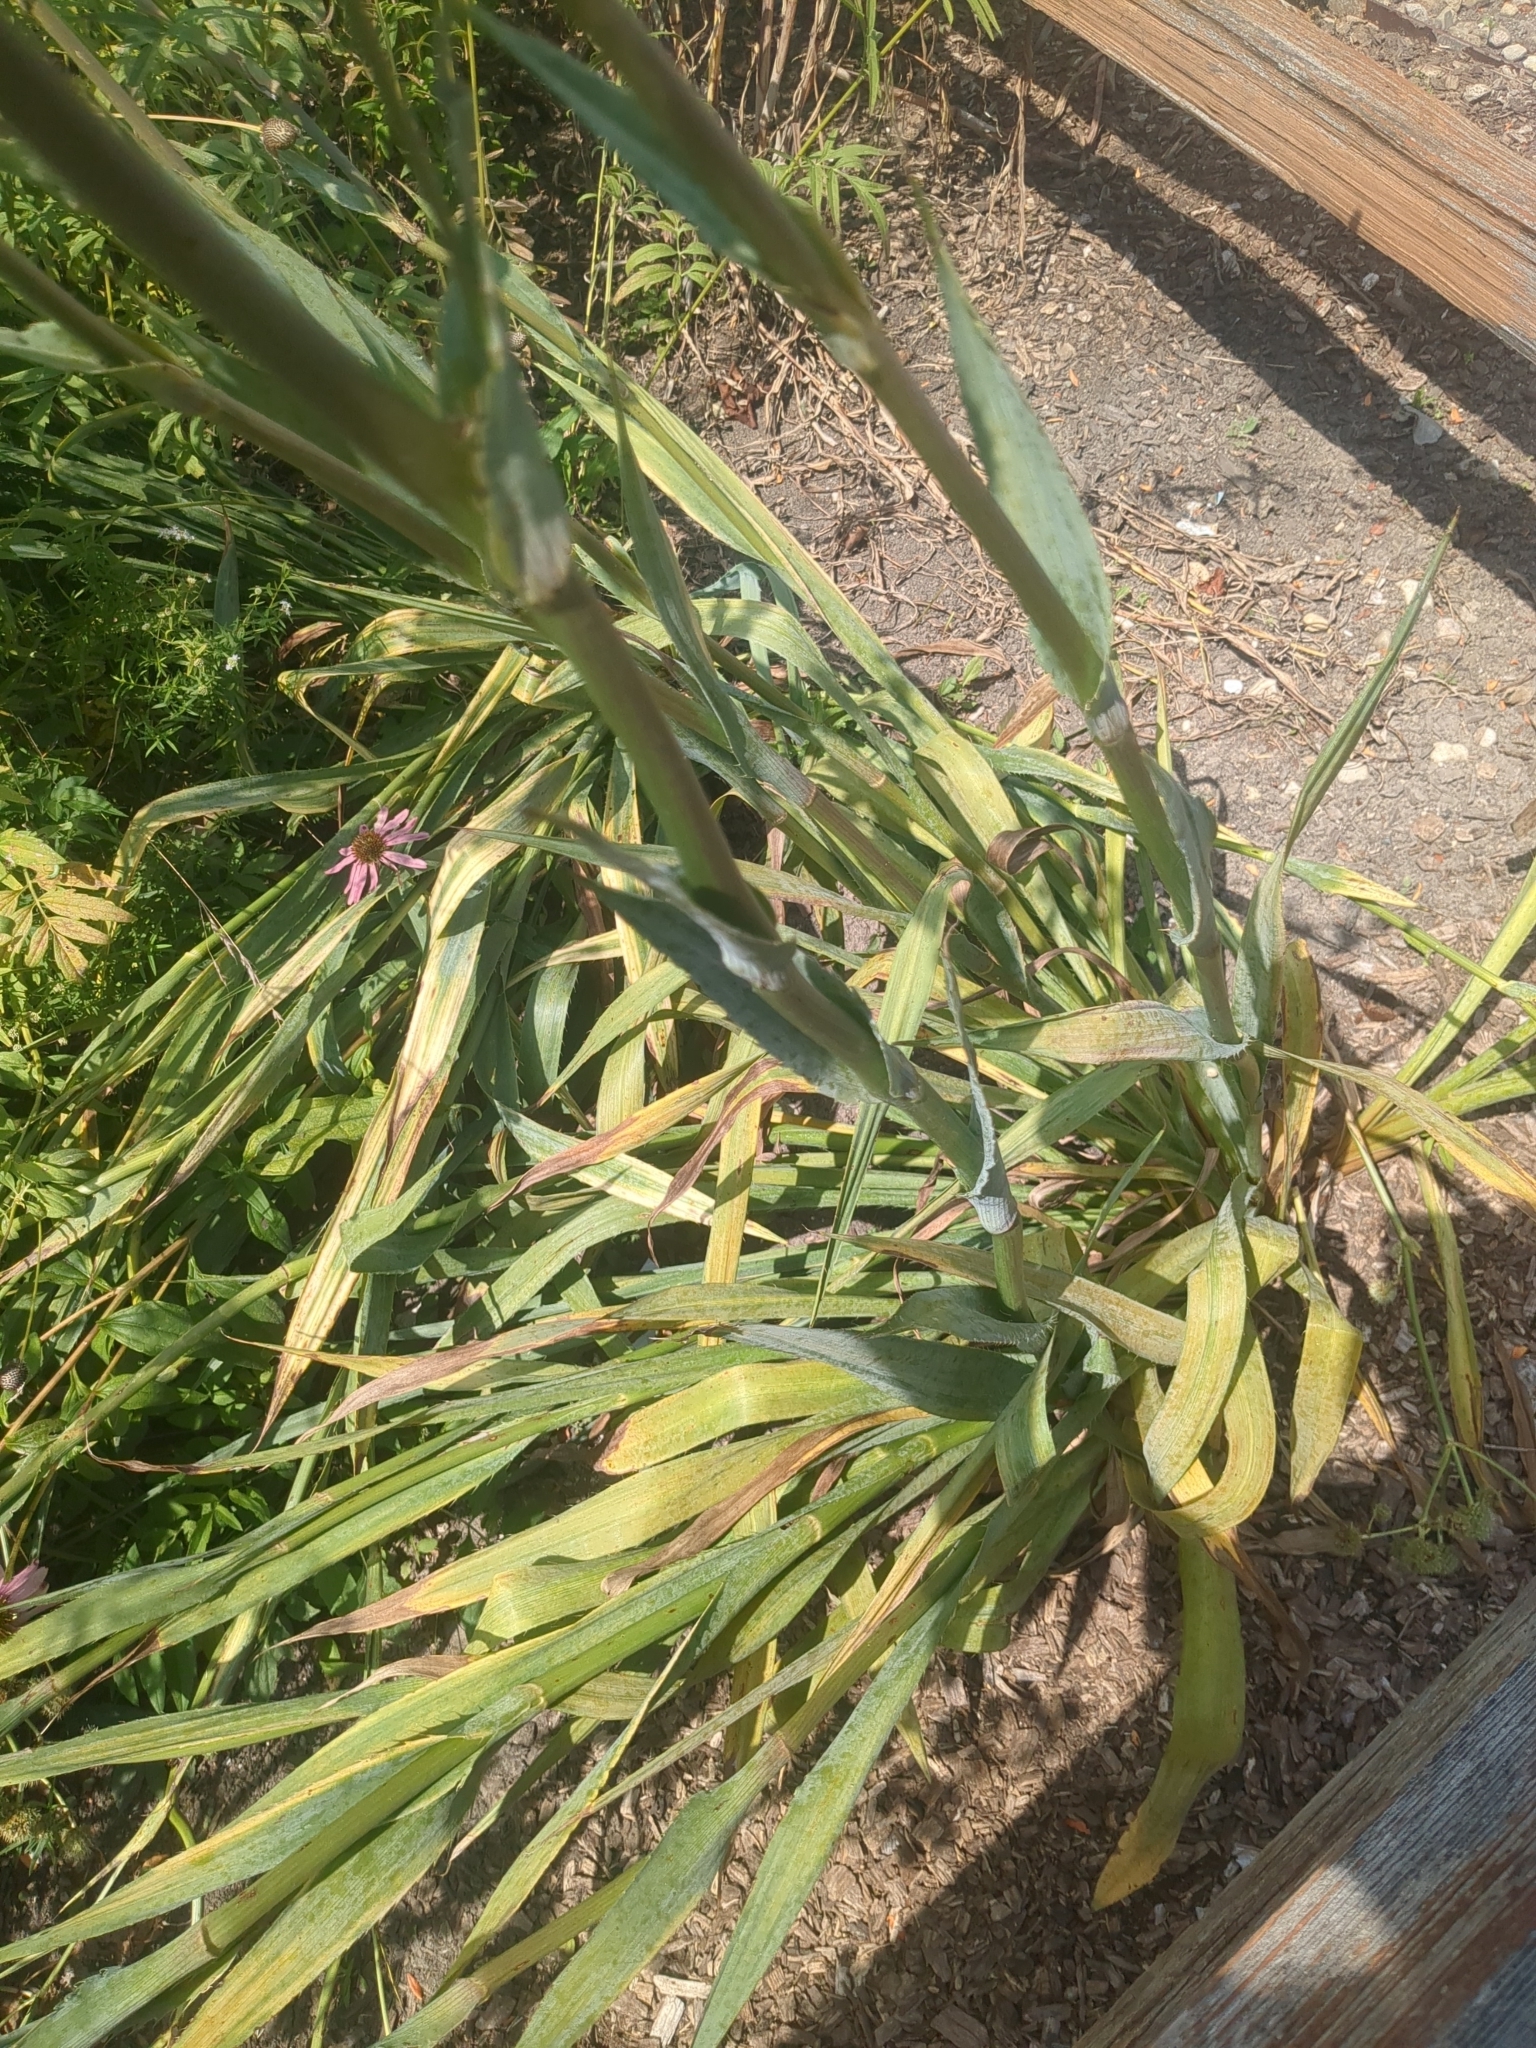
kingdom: Plantae
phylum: Tracheophyta
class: Magnoliopsida
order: Apiales
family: Apiaceae
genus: Eryngium
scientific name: Eryngium yuccifolium
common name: Button eryngo
